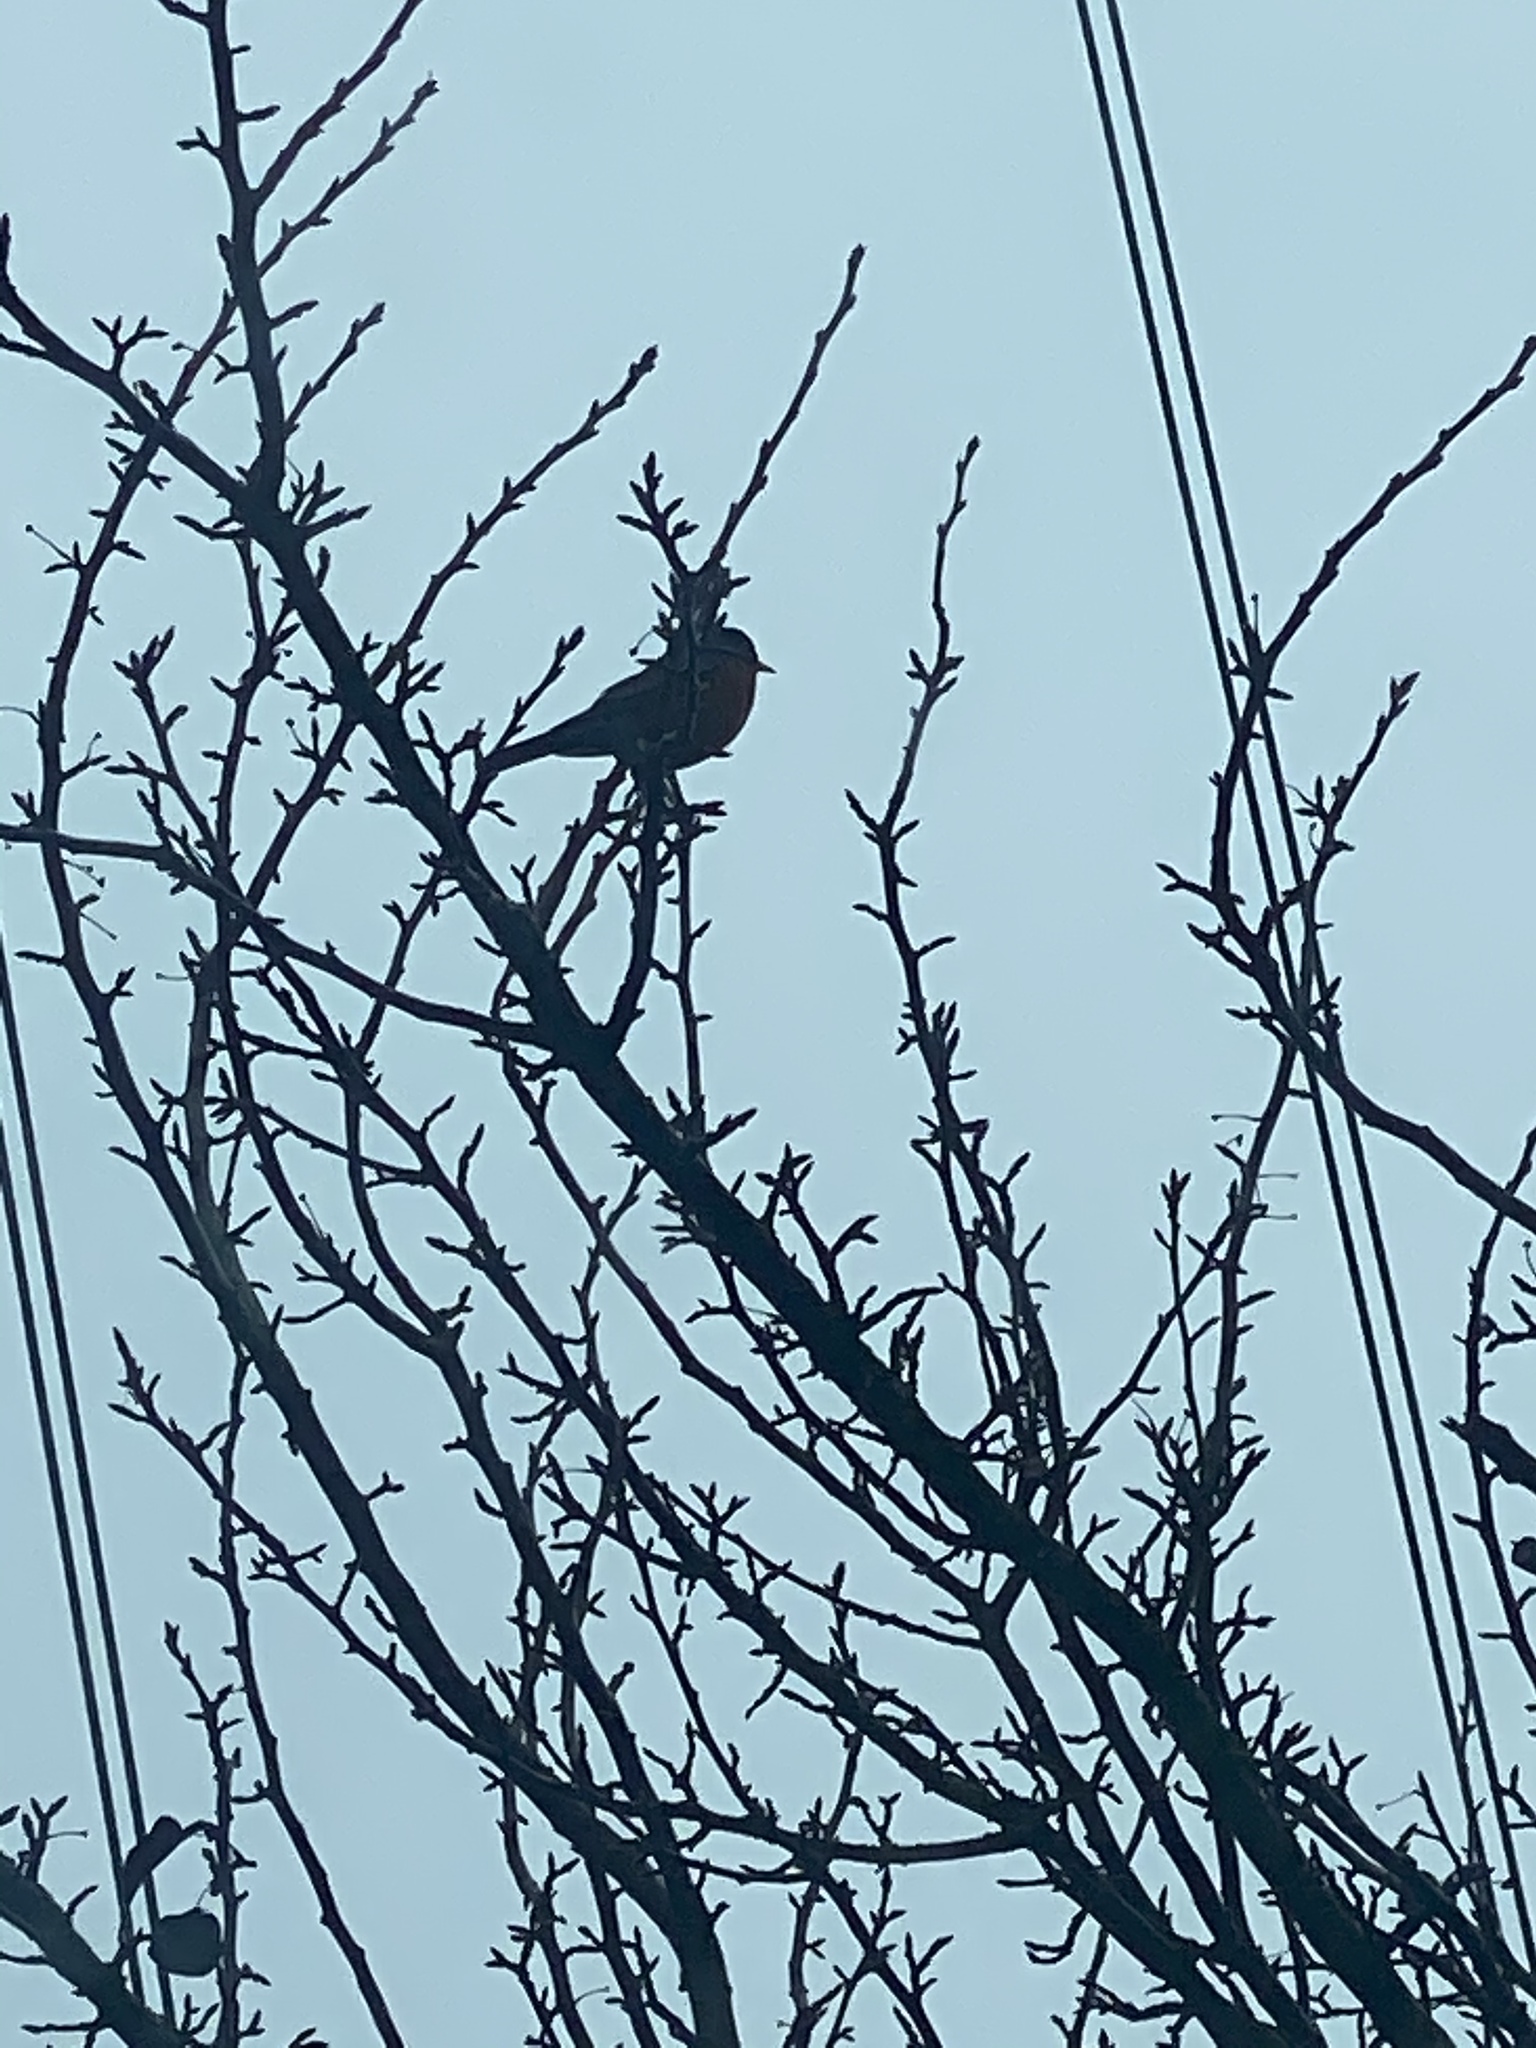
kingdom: Animalia
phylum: Chordata
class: Aves
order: Passeriformes
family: Turdidae
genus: Turdus
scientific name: Turdus migratorius
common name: American robin
